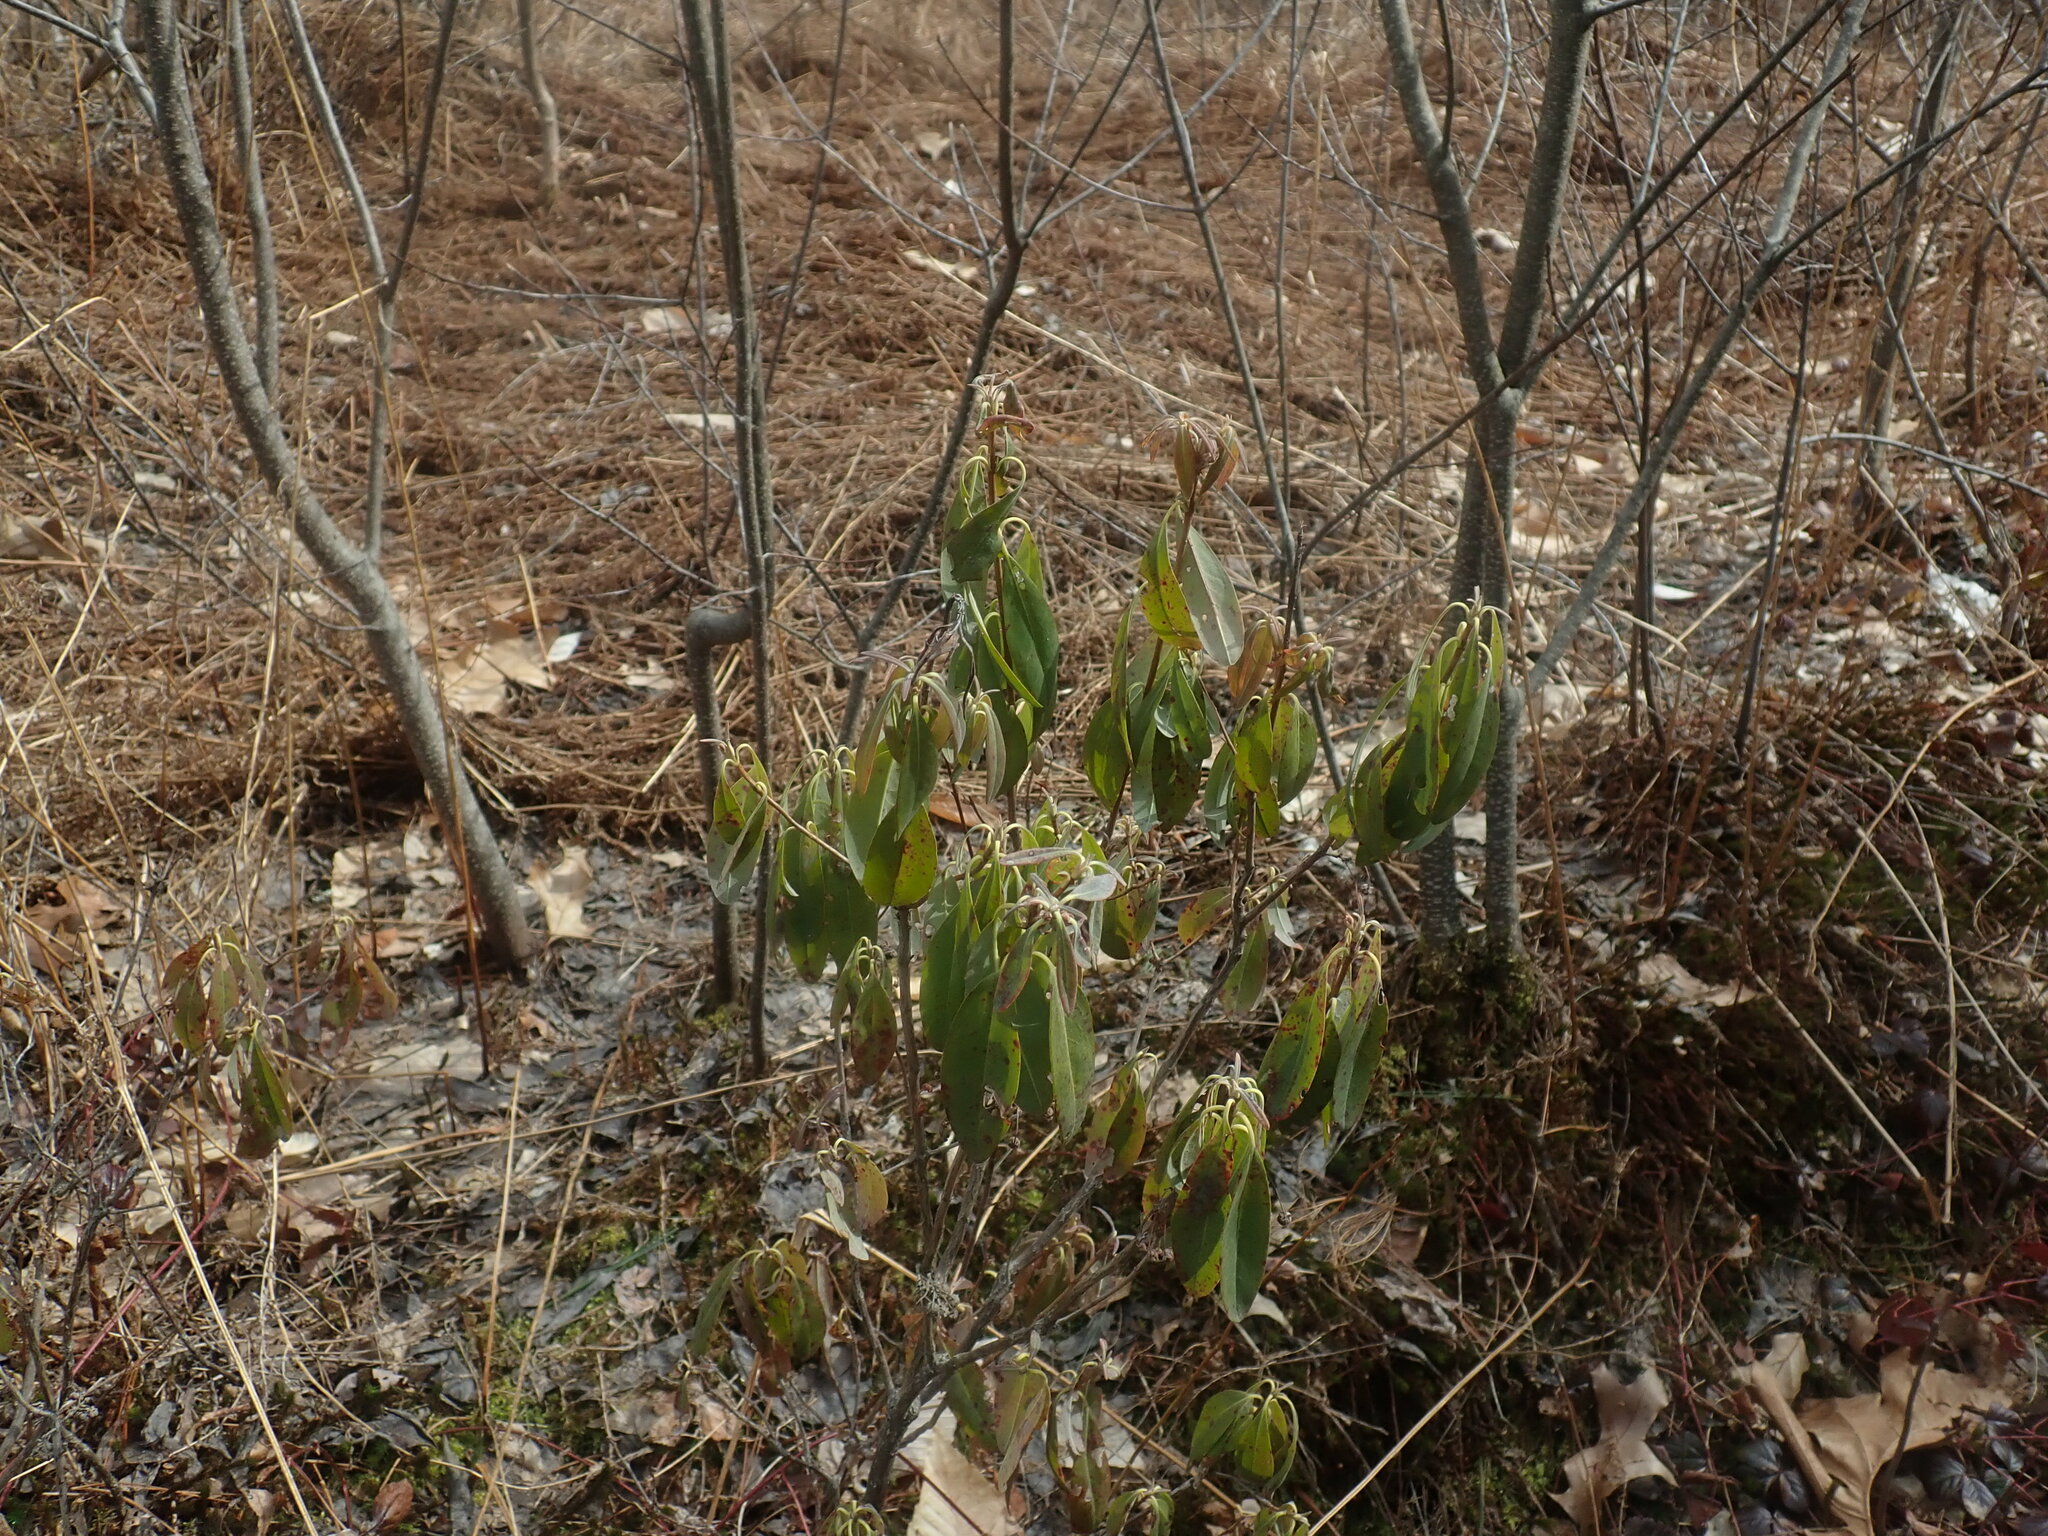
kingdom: Plantae
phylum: Tracheophyta
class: Magnoliopsida
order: Ericales
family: Ericaceae
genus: Kalmia
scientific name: Kalmia angustifolia
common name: Sheep-laurel
